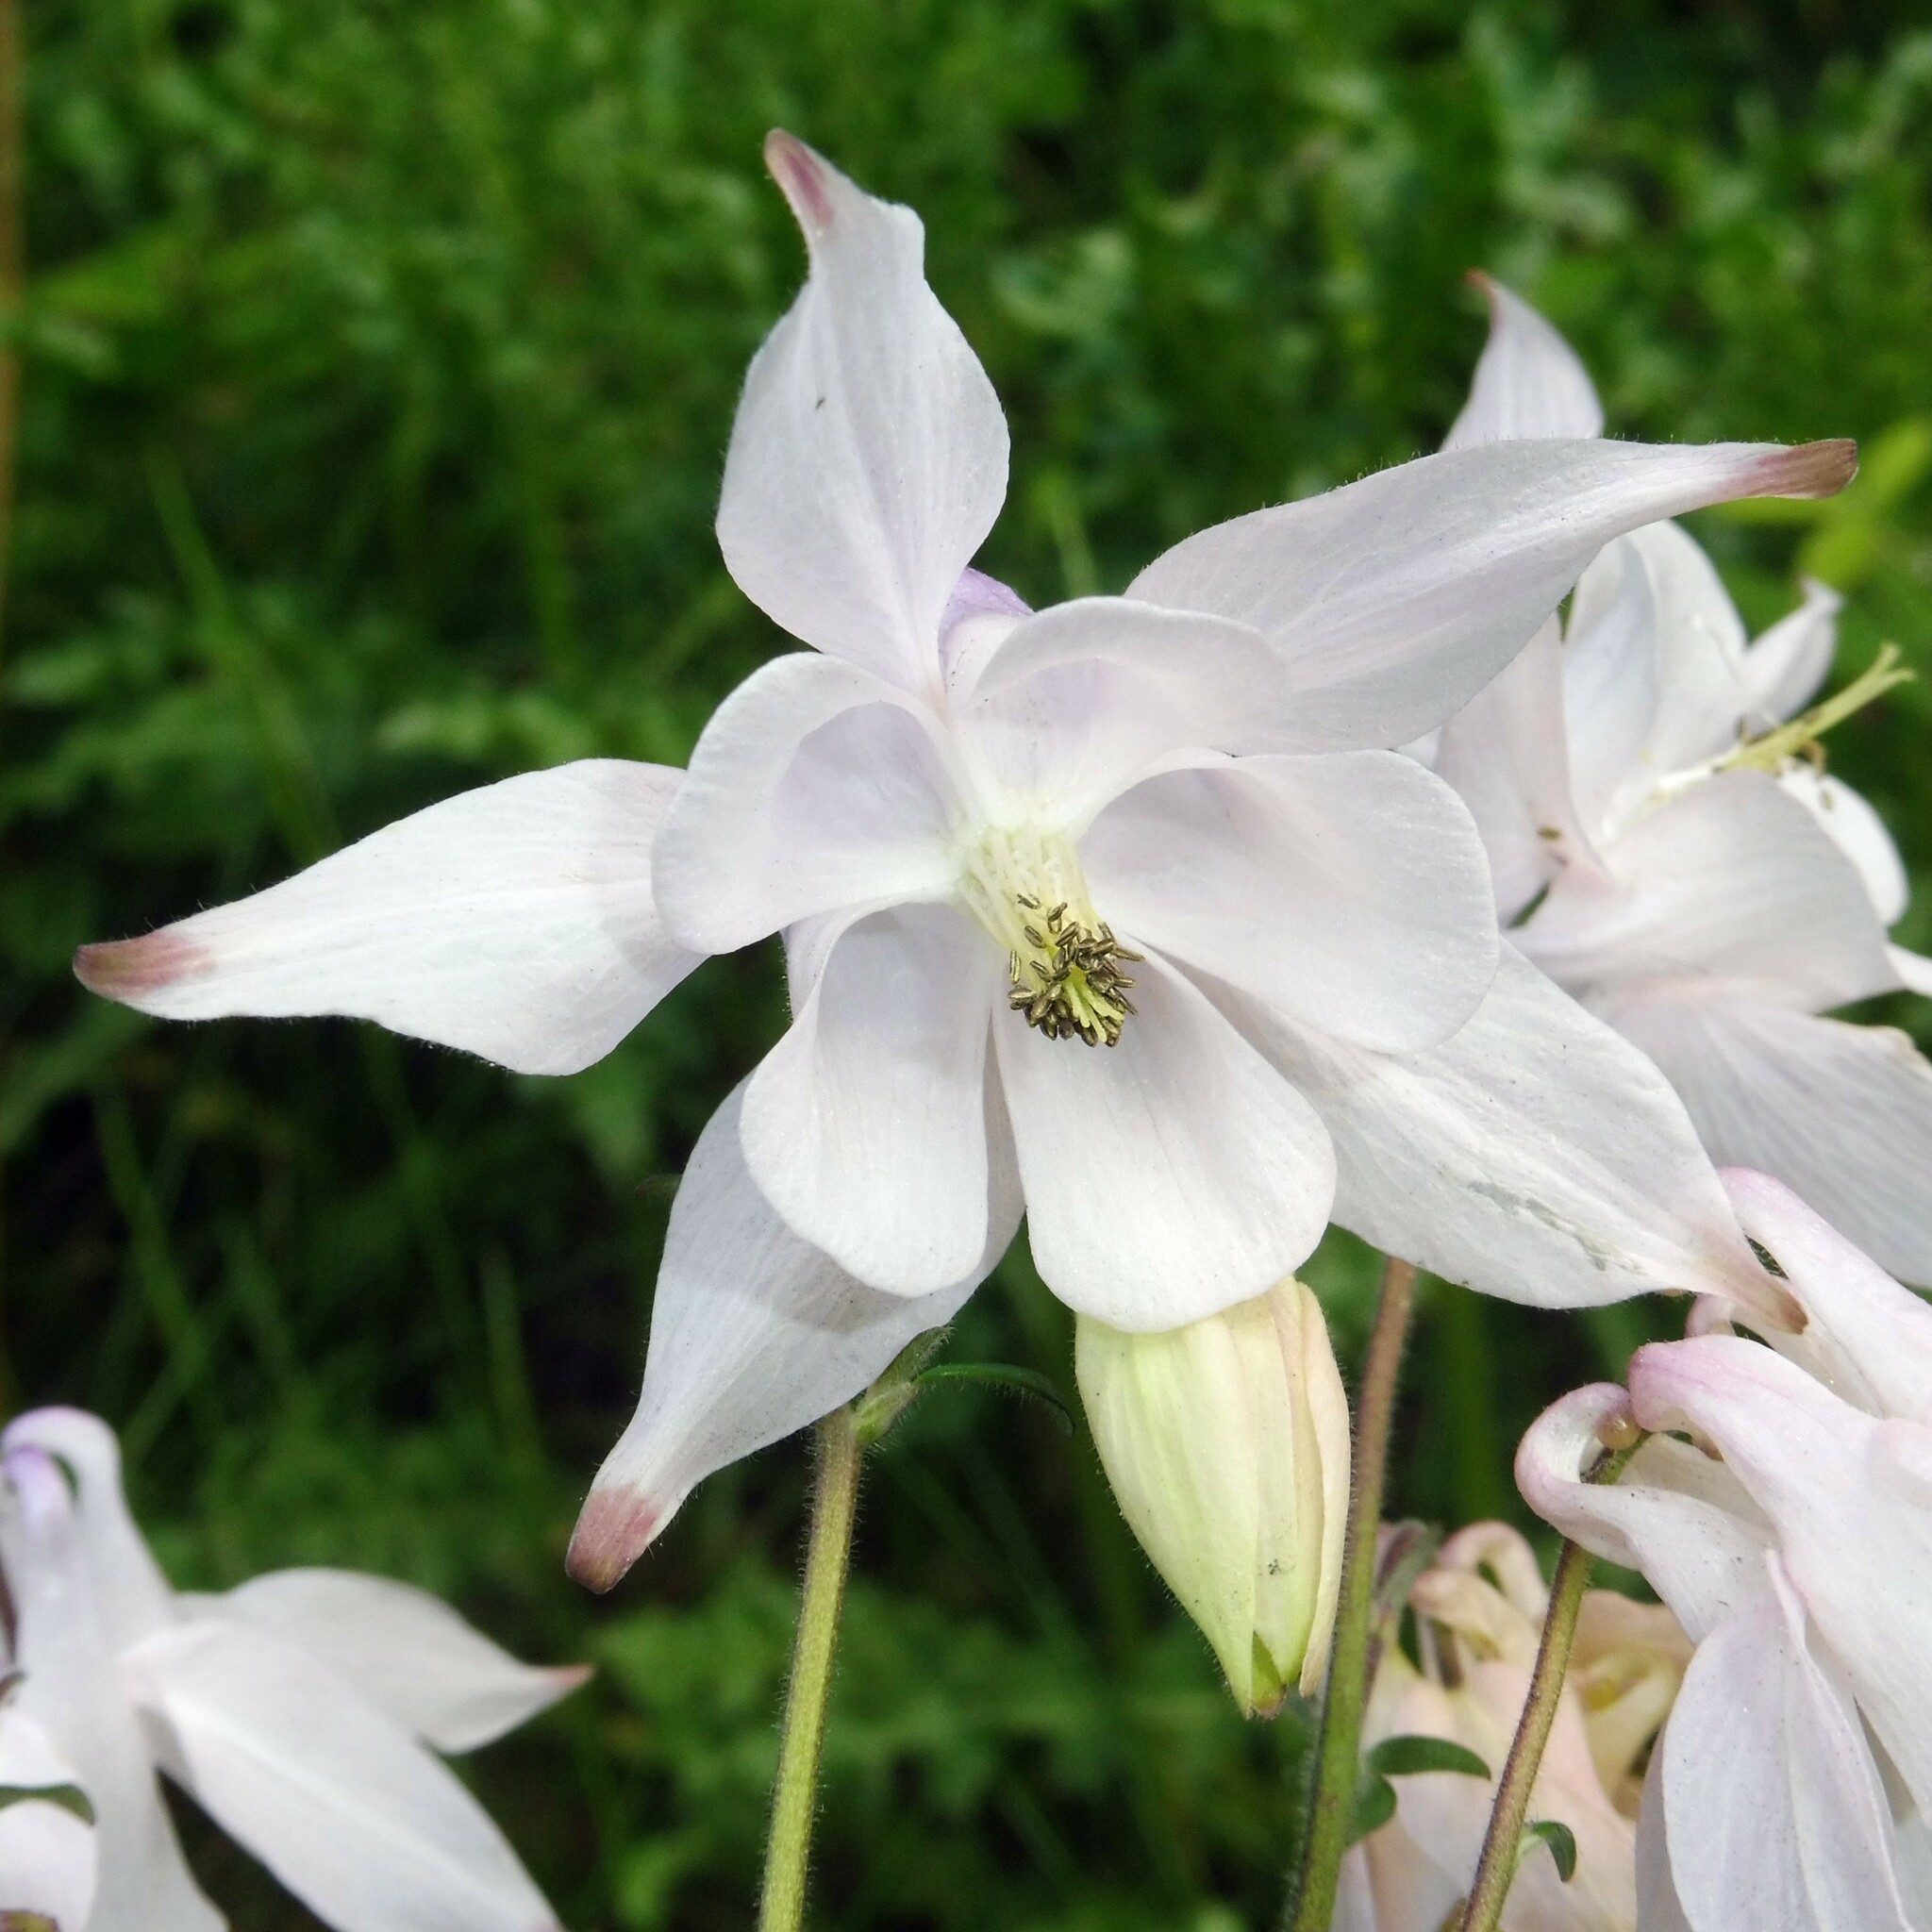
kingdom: Plantae
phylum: Tracheophyta
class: Magnoliopsida
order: Ranunculales
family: Ranunculaceae
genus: Aquilegia
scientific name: Aquilegia
